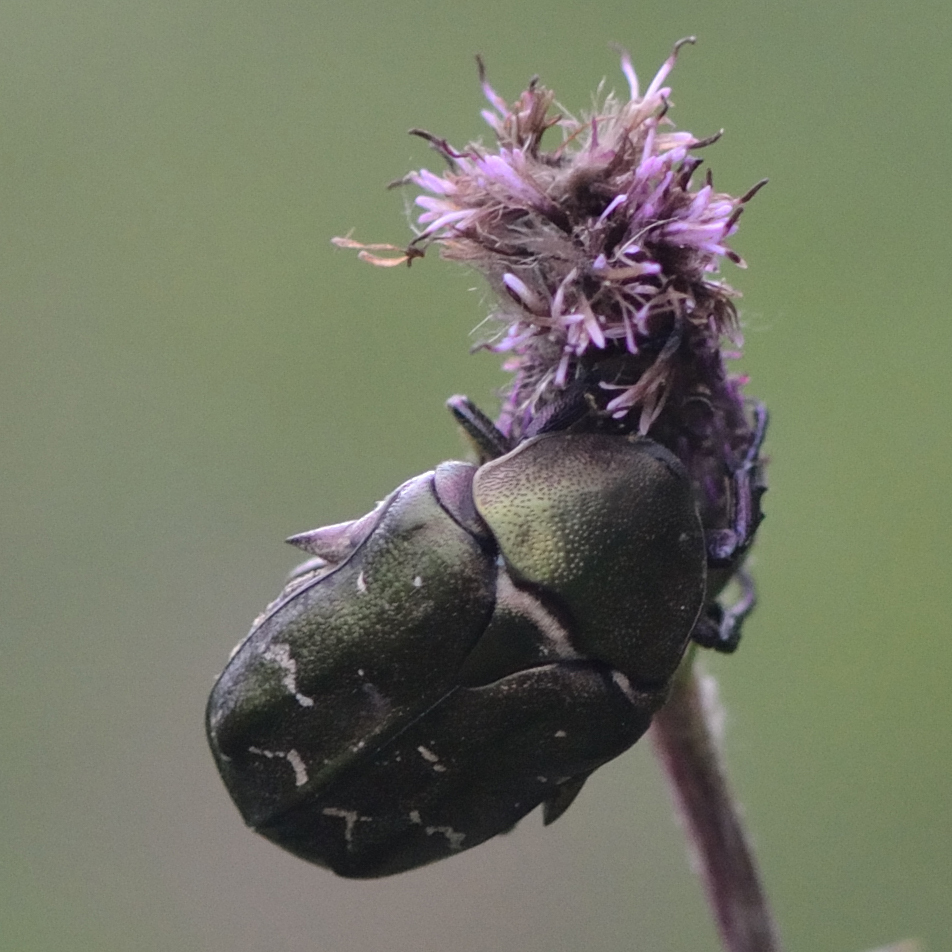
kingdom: Animalia
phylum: Arthropoda
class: Insecta
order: Coleoptera
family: Scarabaeidae
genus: Protaetia
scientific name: Protaetia cuprea
